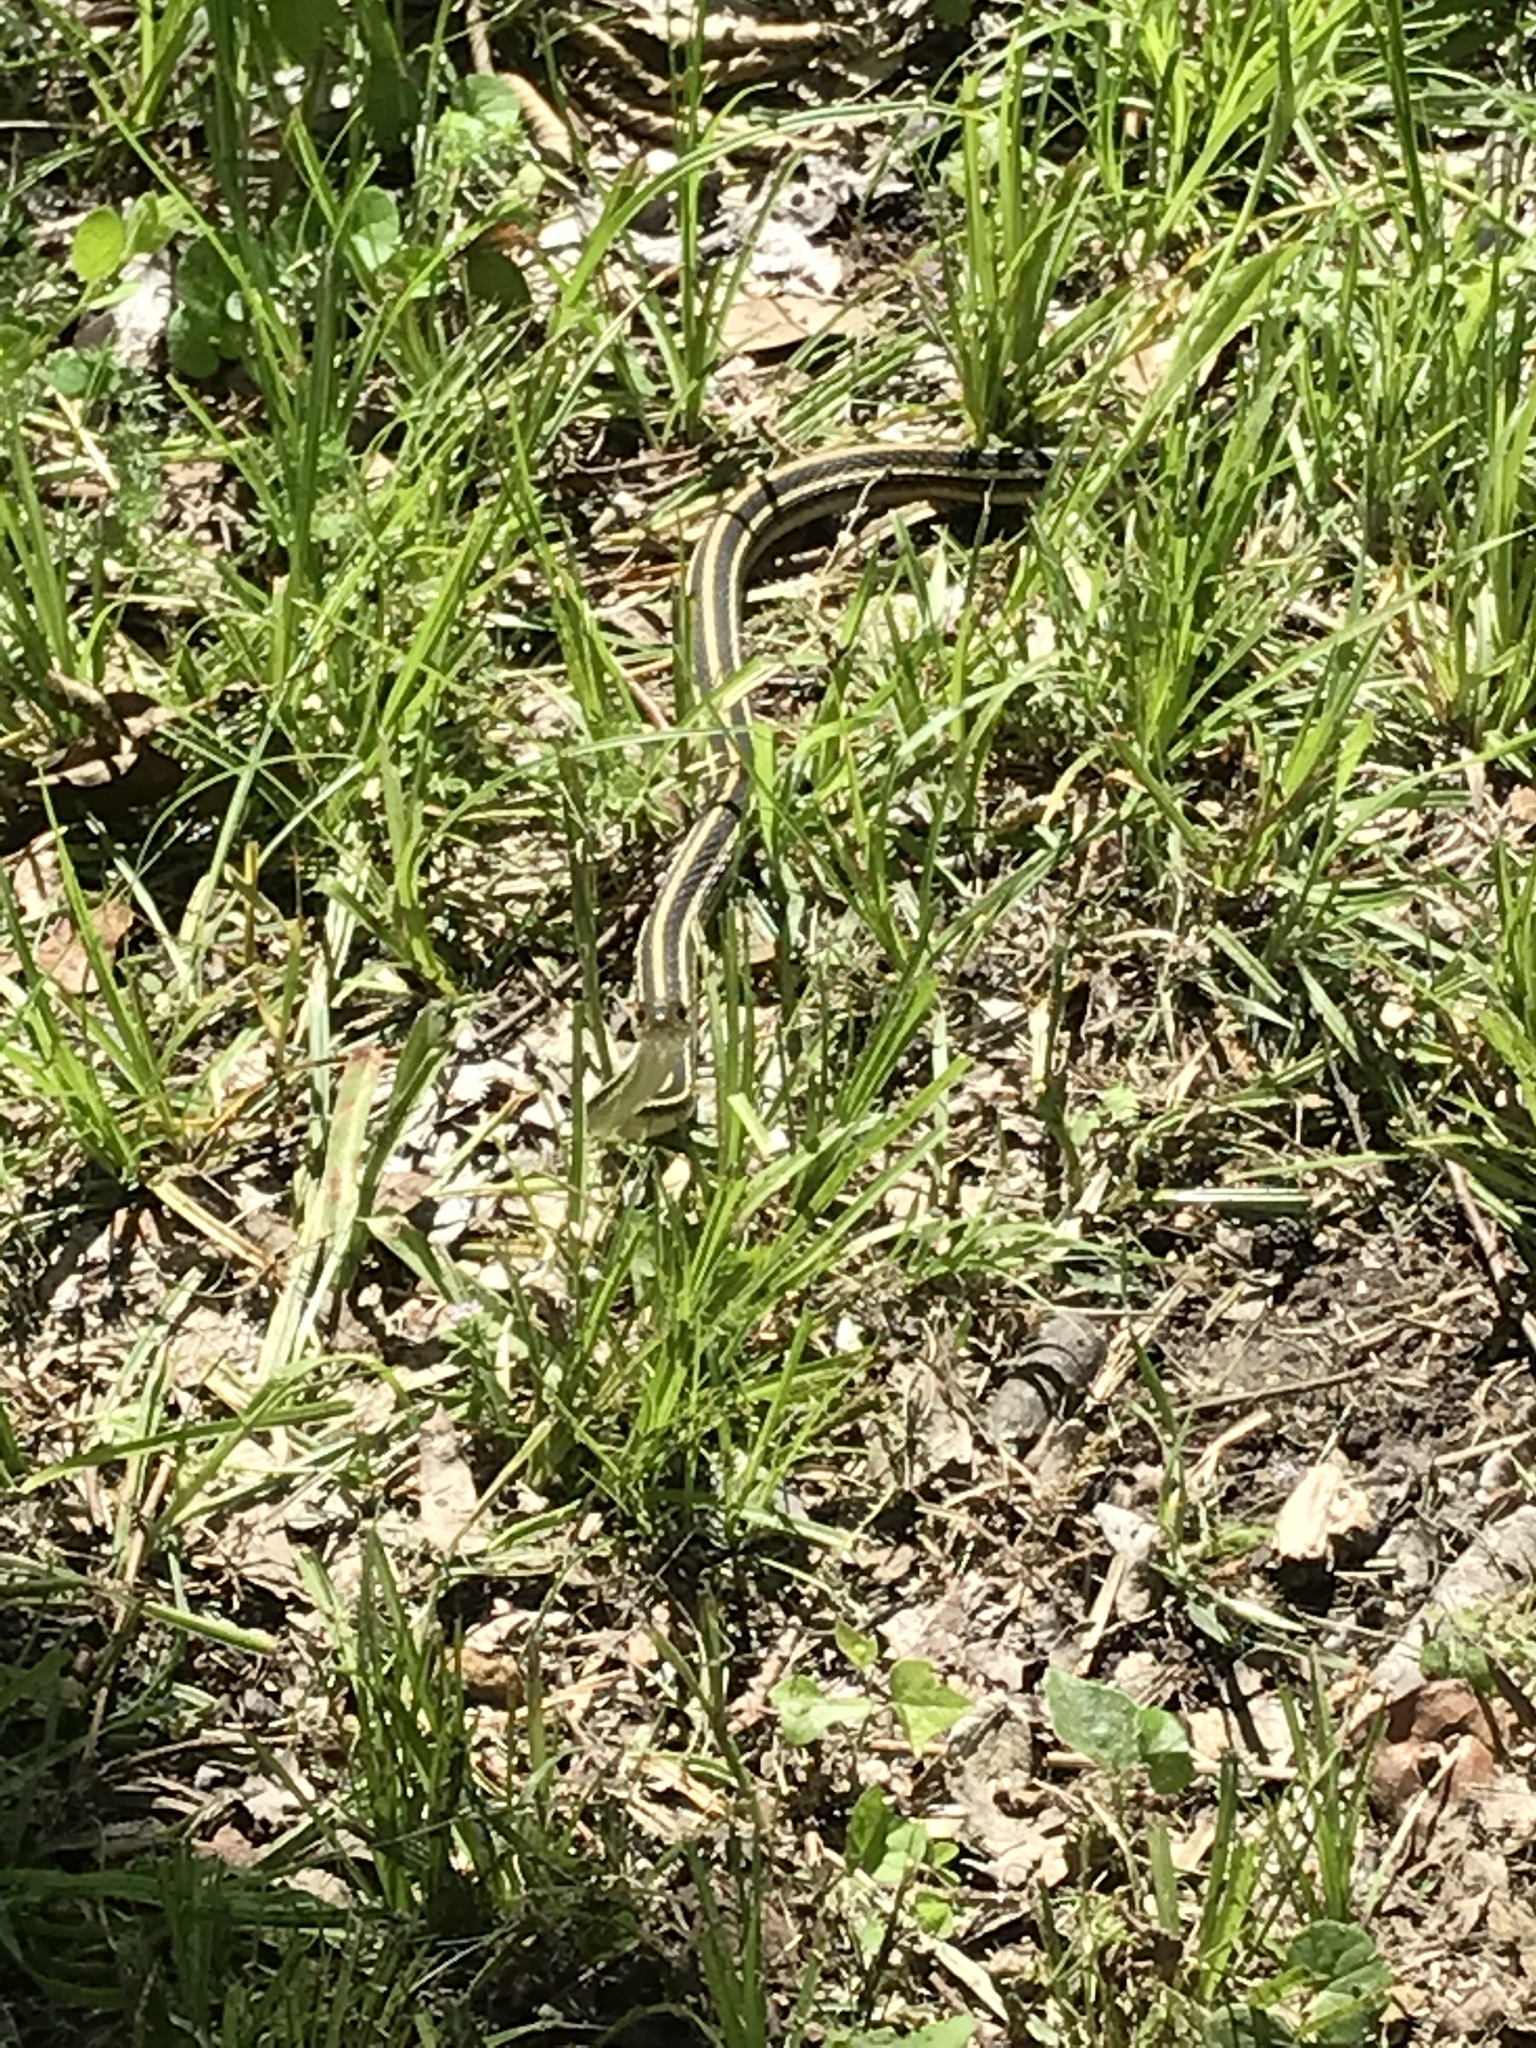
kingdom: Animalia
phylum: Chordata
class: Squamata
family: Colubridae
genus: Thamnophis
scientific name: Thamnophis proximus
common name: Western ribbon snake
